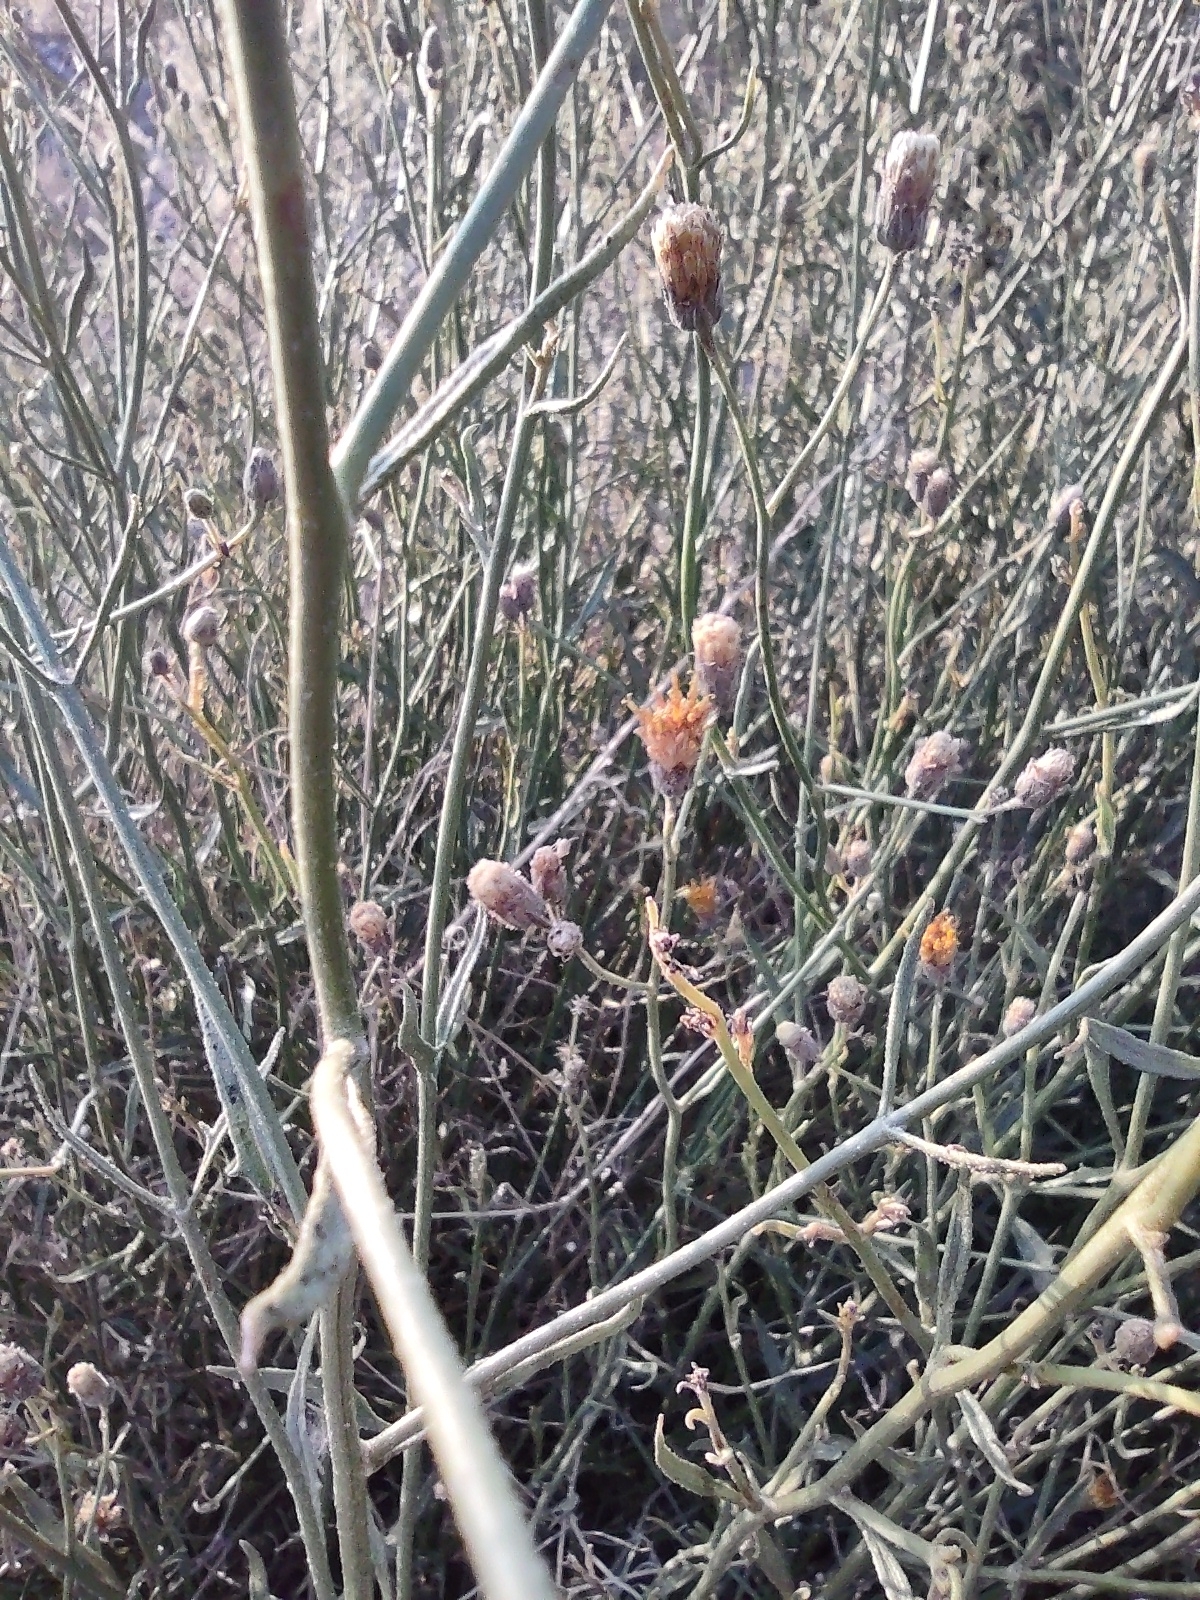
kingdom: Plantae
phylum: Tracheophyta
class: Magnoliopsida
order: Asterales
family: Asteraceae
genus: Bebbia
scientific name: Bebbia juncea
